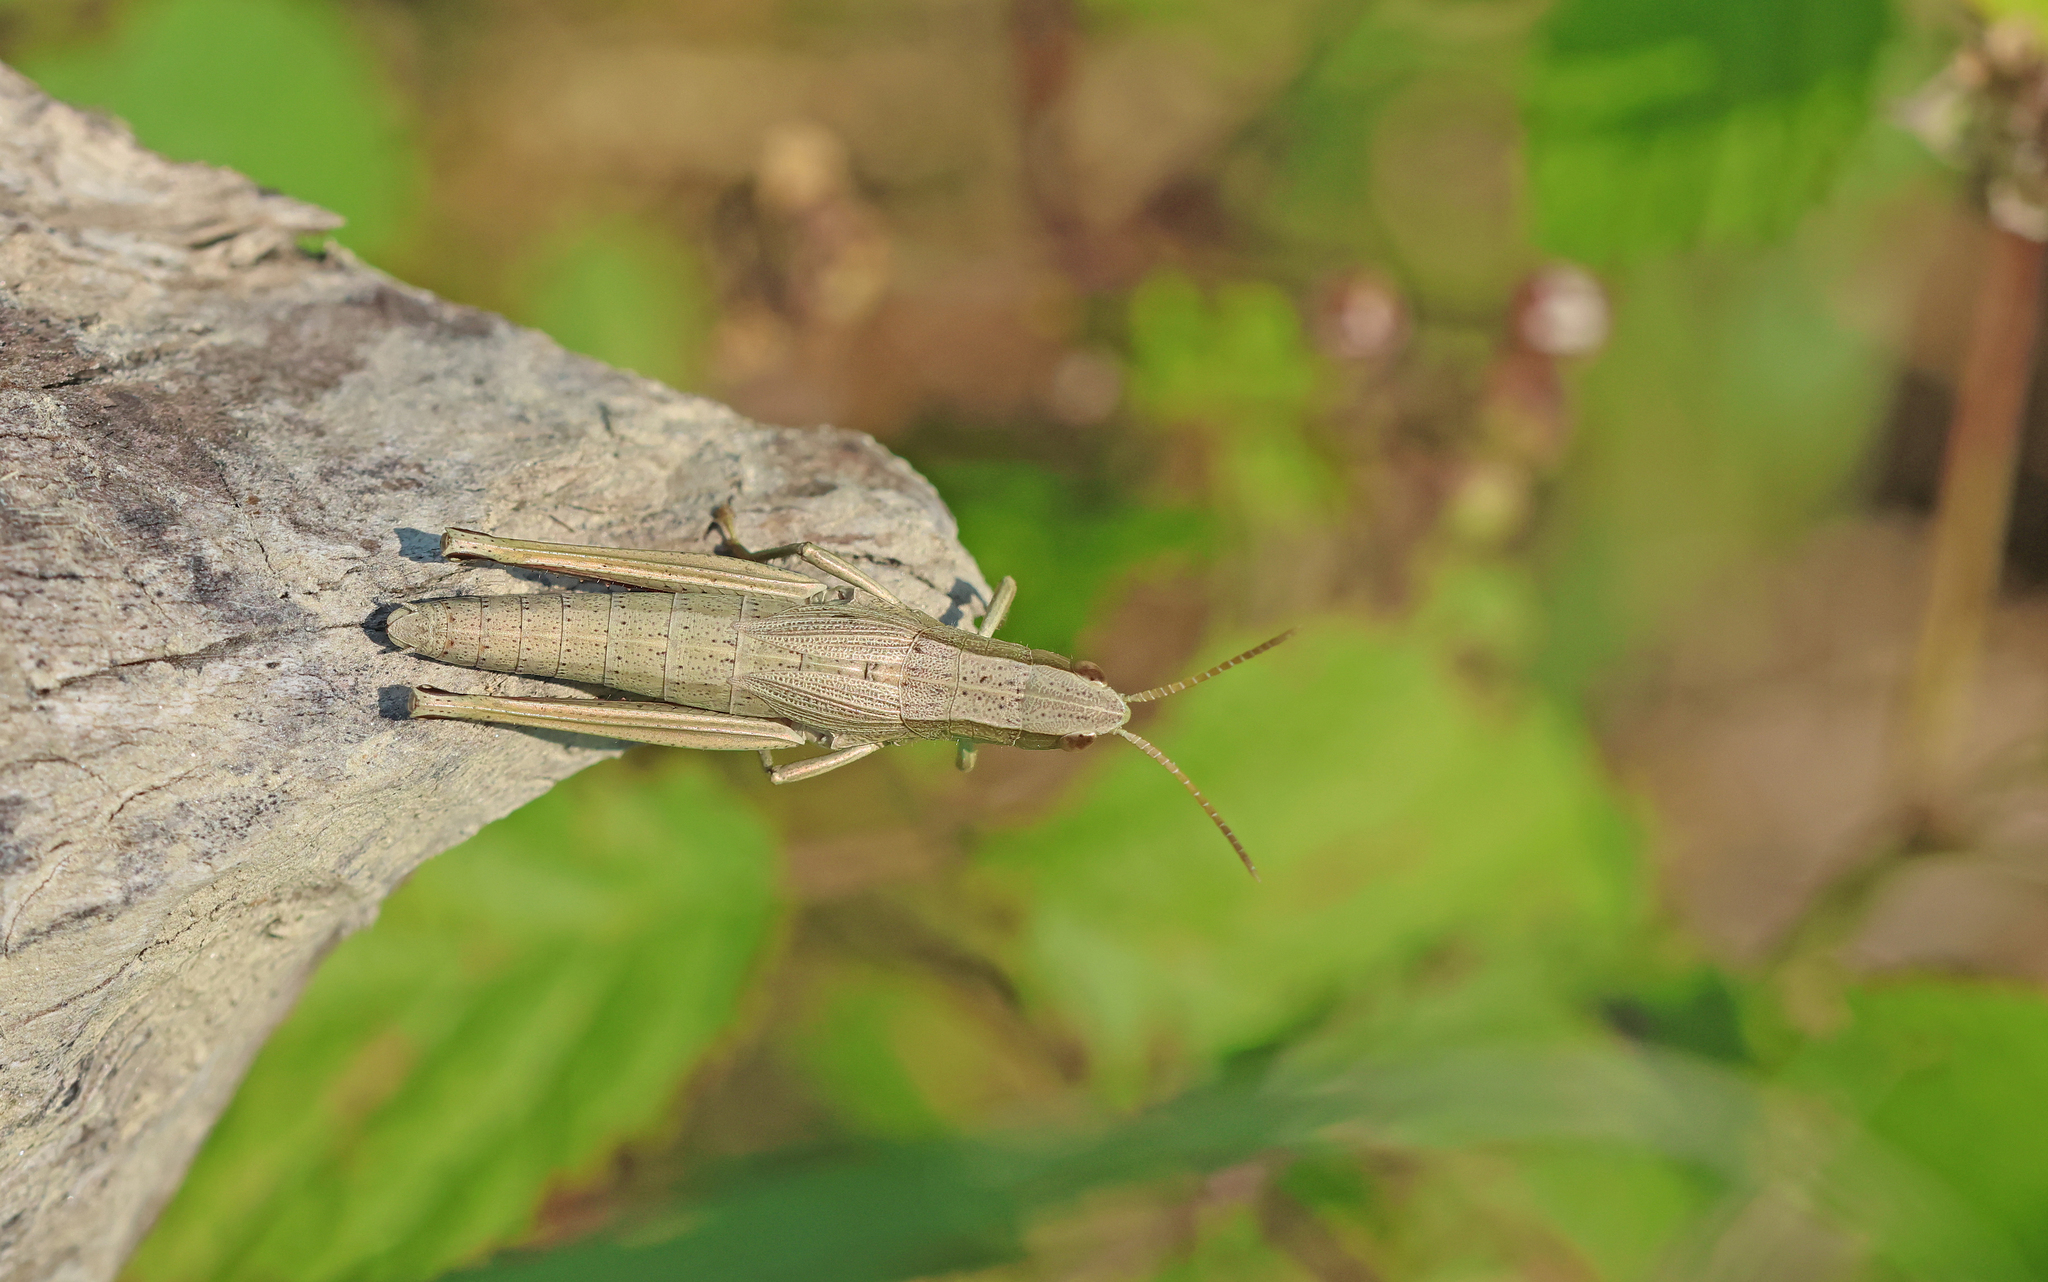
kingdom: Animalia
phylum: Arthropoda
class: Insecta
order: Orthoptera
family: Acrididae
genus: Chrysochraon
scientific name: Chrysochraon dispar
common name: Large gold grasshopper
